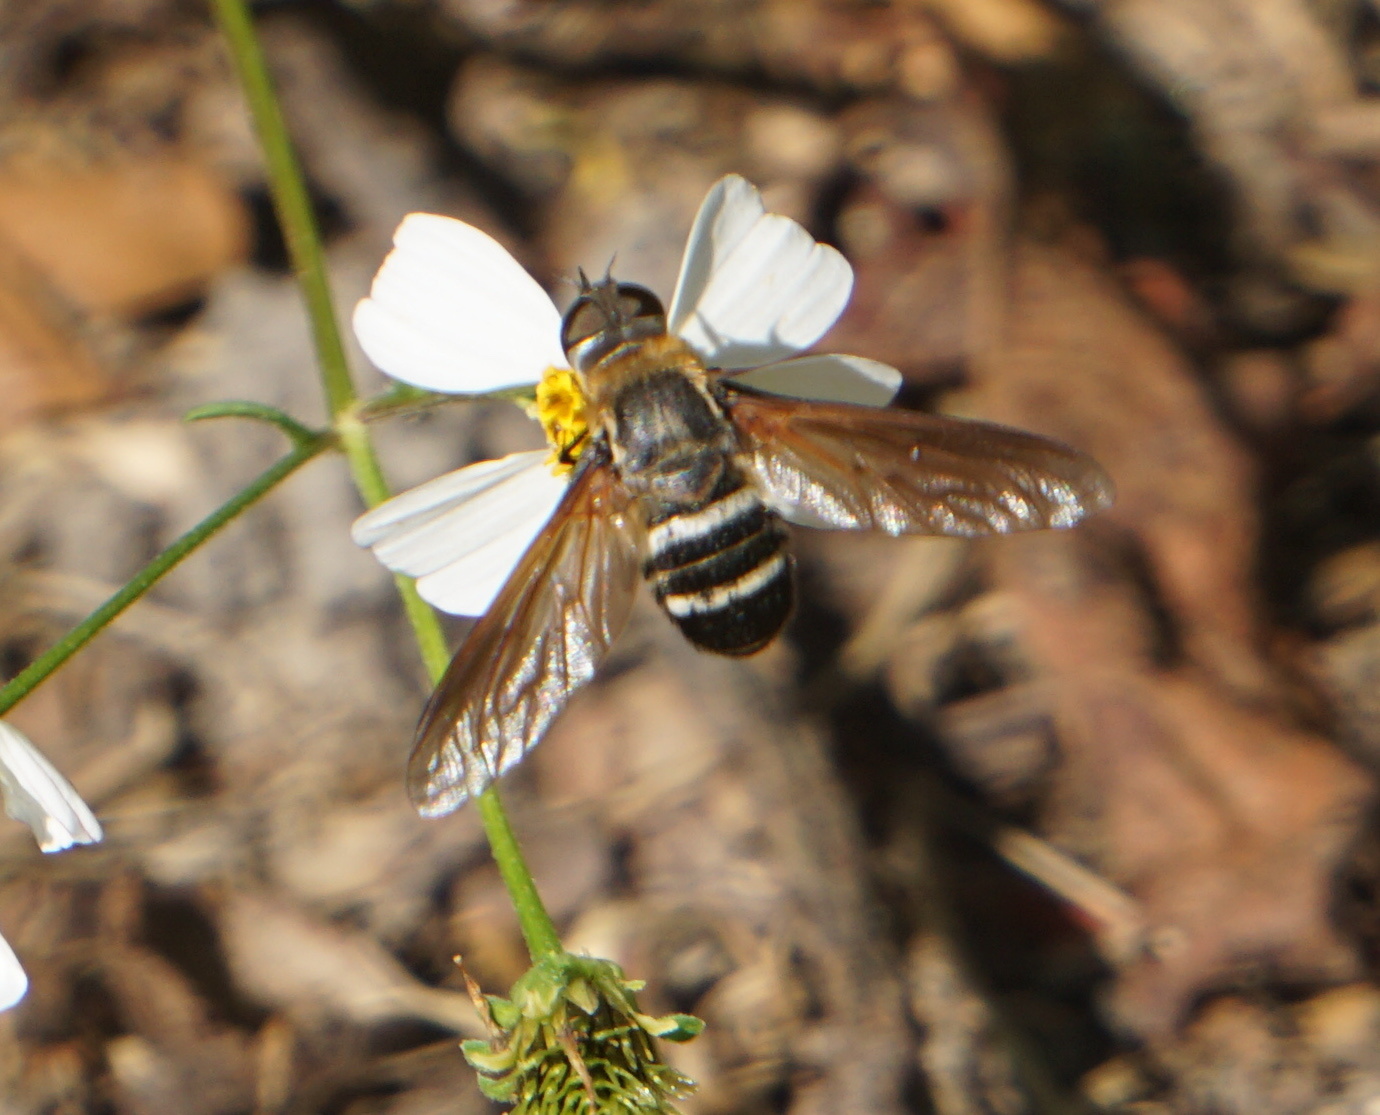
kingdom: Animalia
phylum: Arthropoda
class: Insecta
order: Diptera
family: Bombyliidae
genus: Exoprosopa
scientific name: Exoprosopa fasciata
